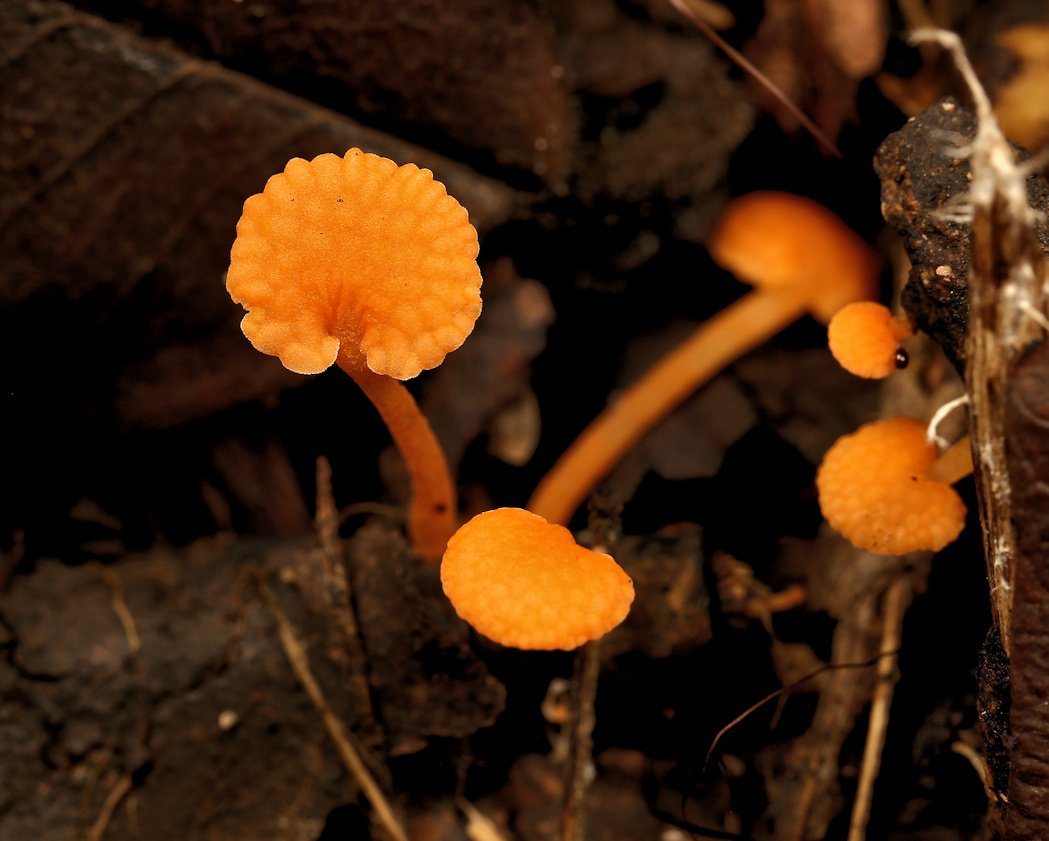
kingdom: Fungi
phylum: Basidiomycota
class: Agaricomycetes
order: Agaricales
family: Mycenaceae
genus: Favolaschia
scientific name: Favolaschia claudopus
